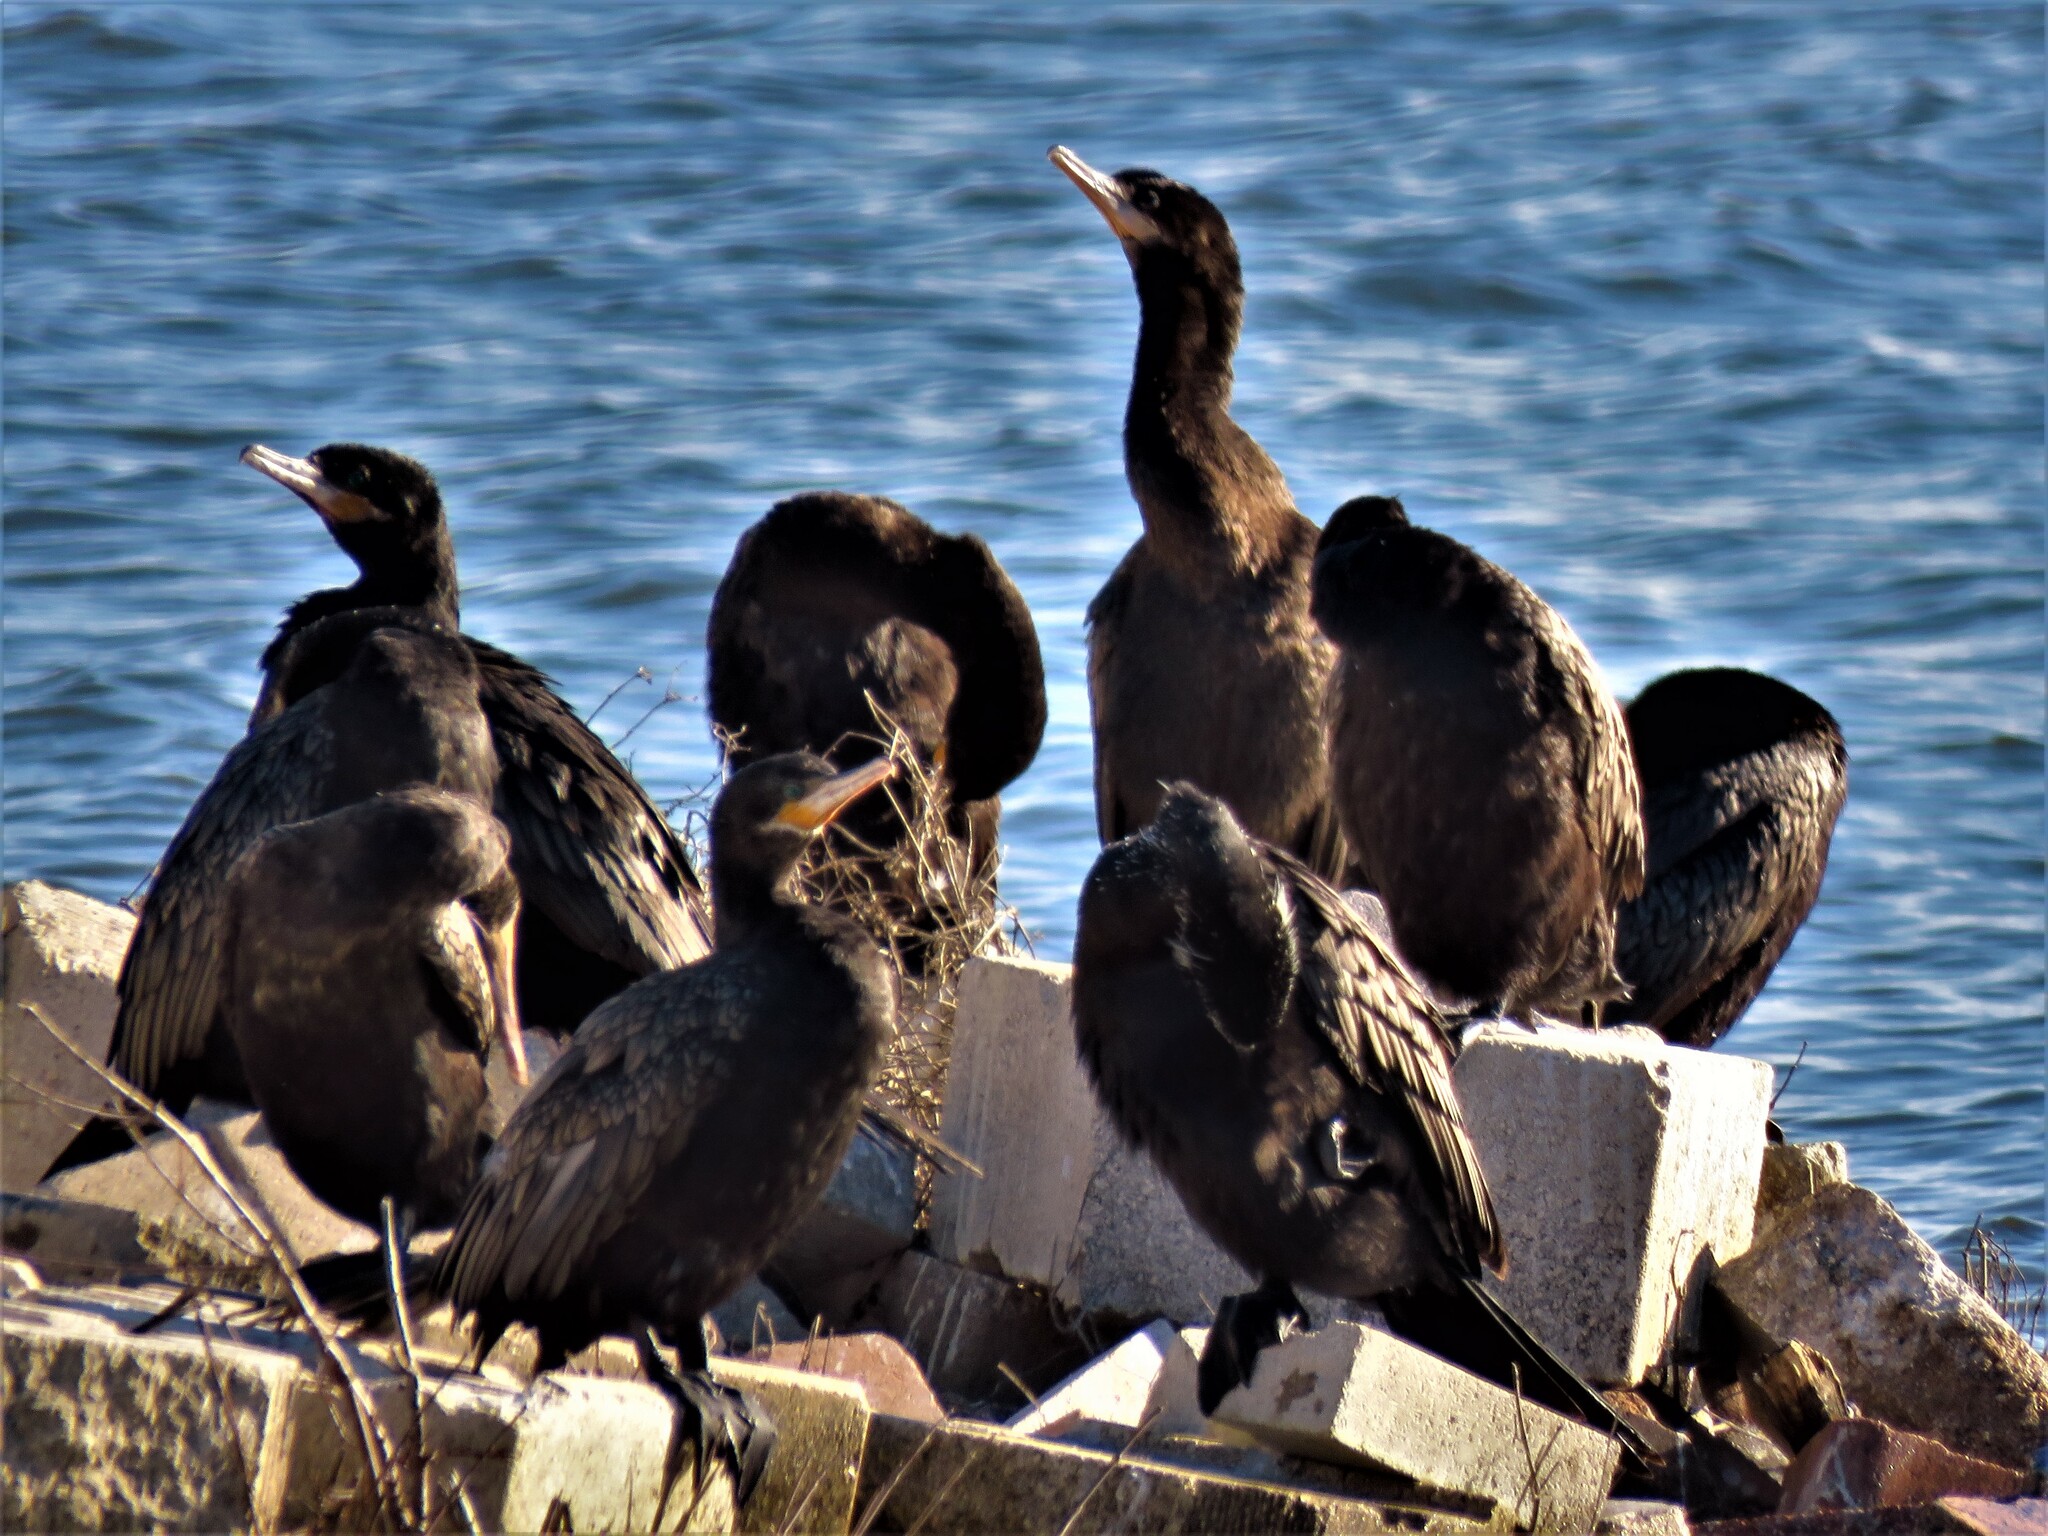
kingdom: Animalia
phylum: Chordata
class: Aves
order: Suliformes
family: Phalacrocoracidae
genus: Phalacrocorax
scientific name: Phalacrocorax brasilianus
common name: Neotropic cormorant
